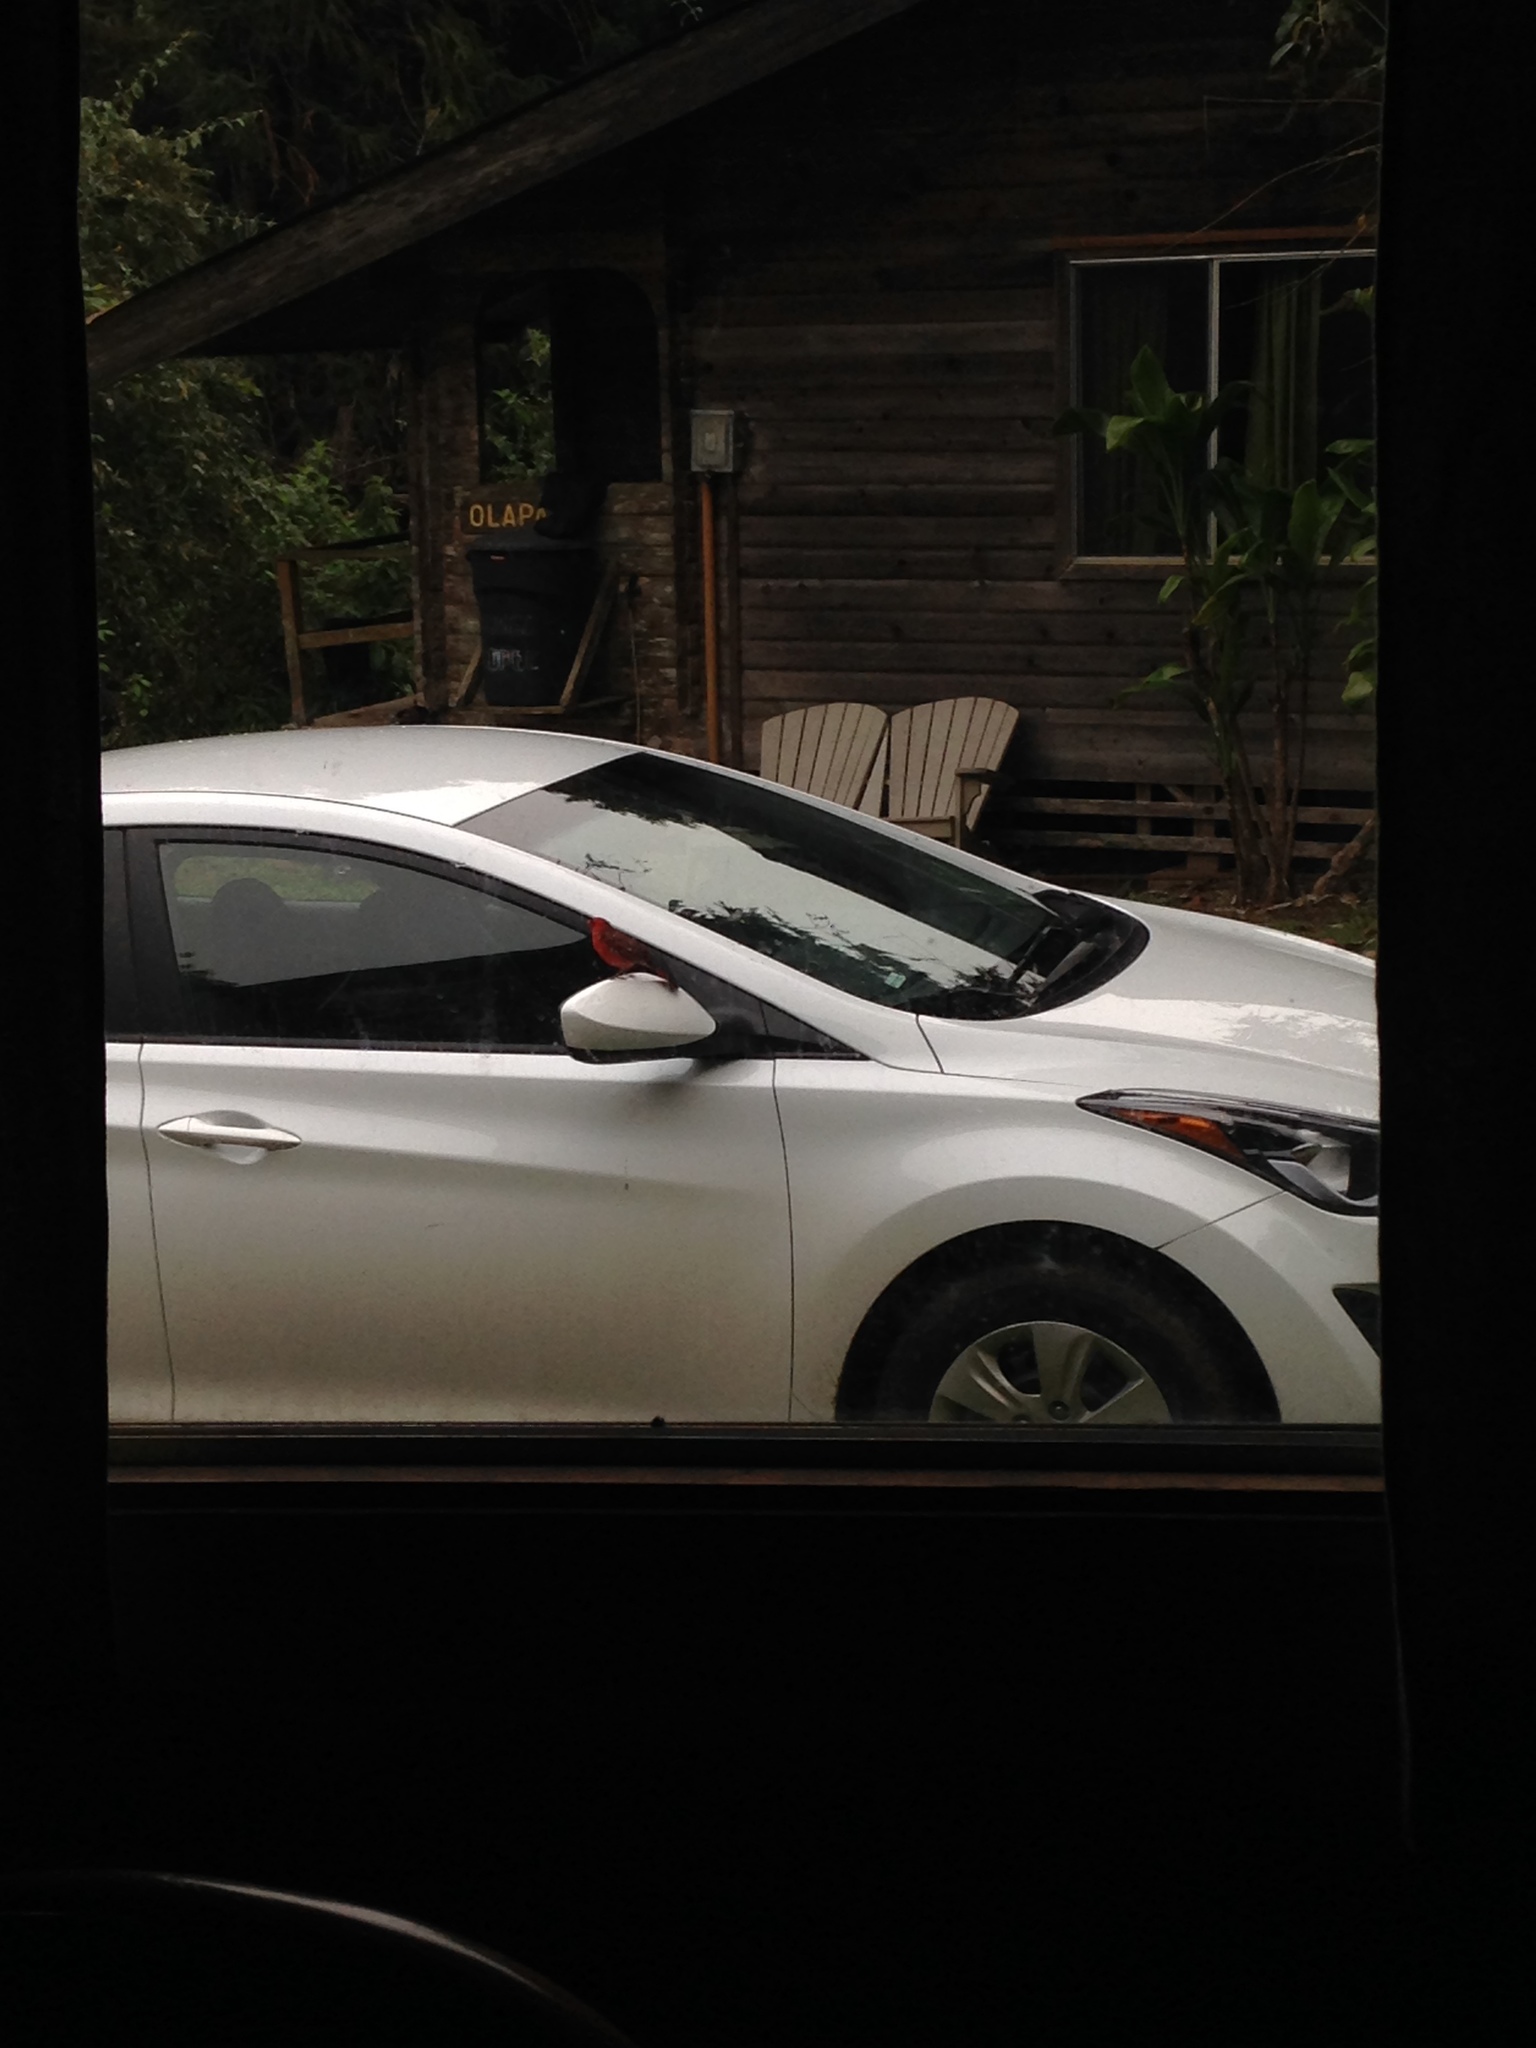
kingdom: Animalia
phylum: Chordata
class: Aves
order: Passeriformes
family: Cardinalidae
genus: Cardinalis
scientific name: Cardinalis cardinalis
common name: Northern cardinal
